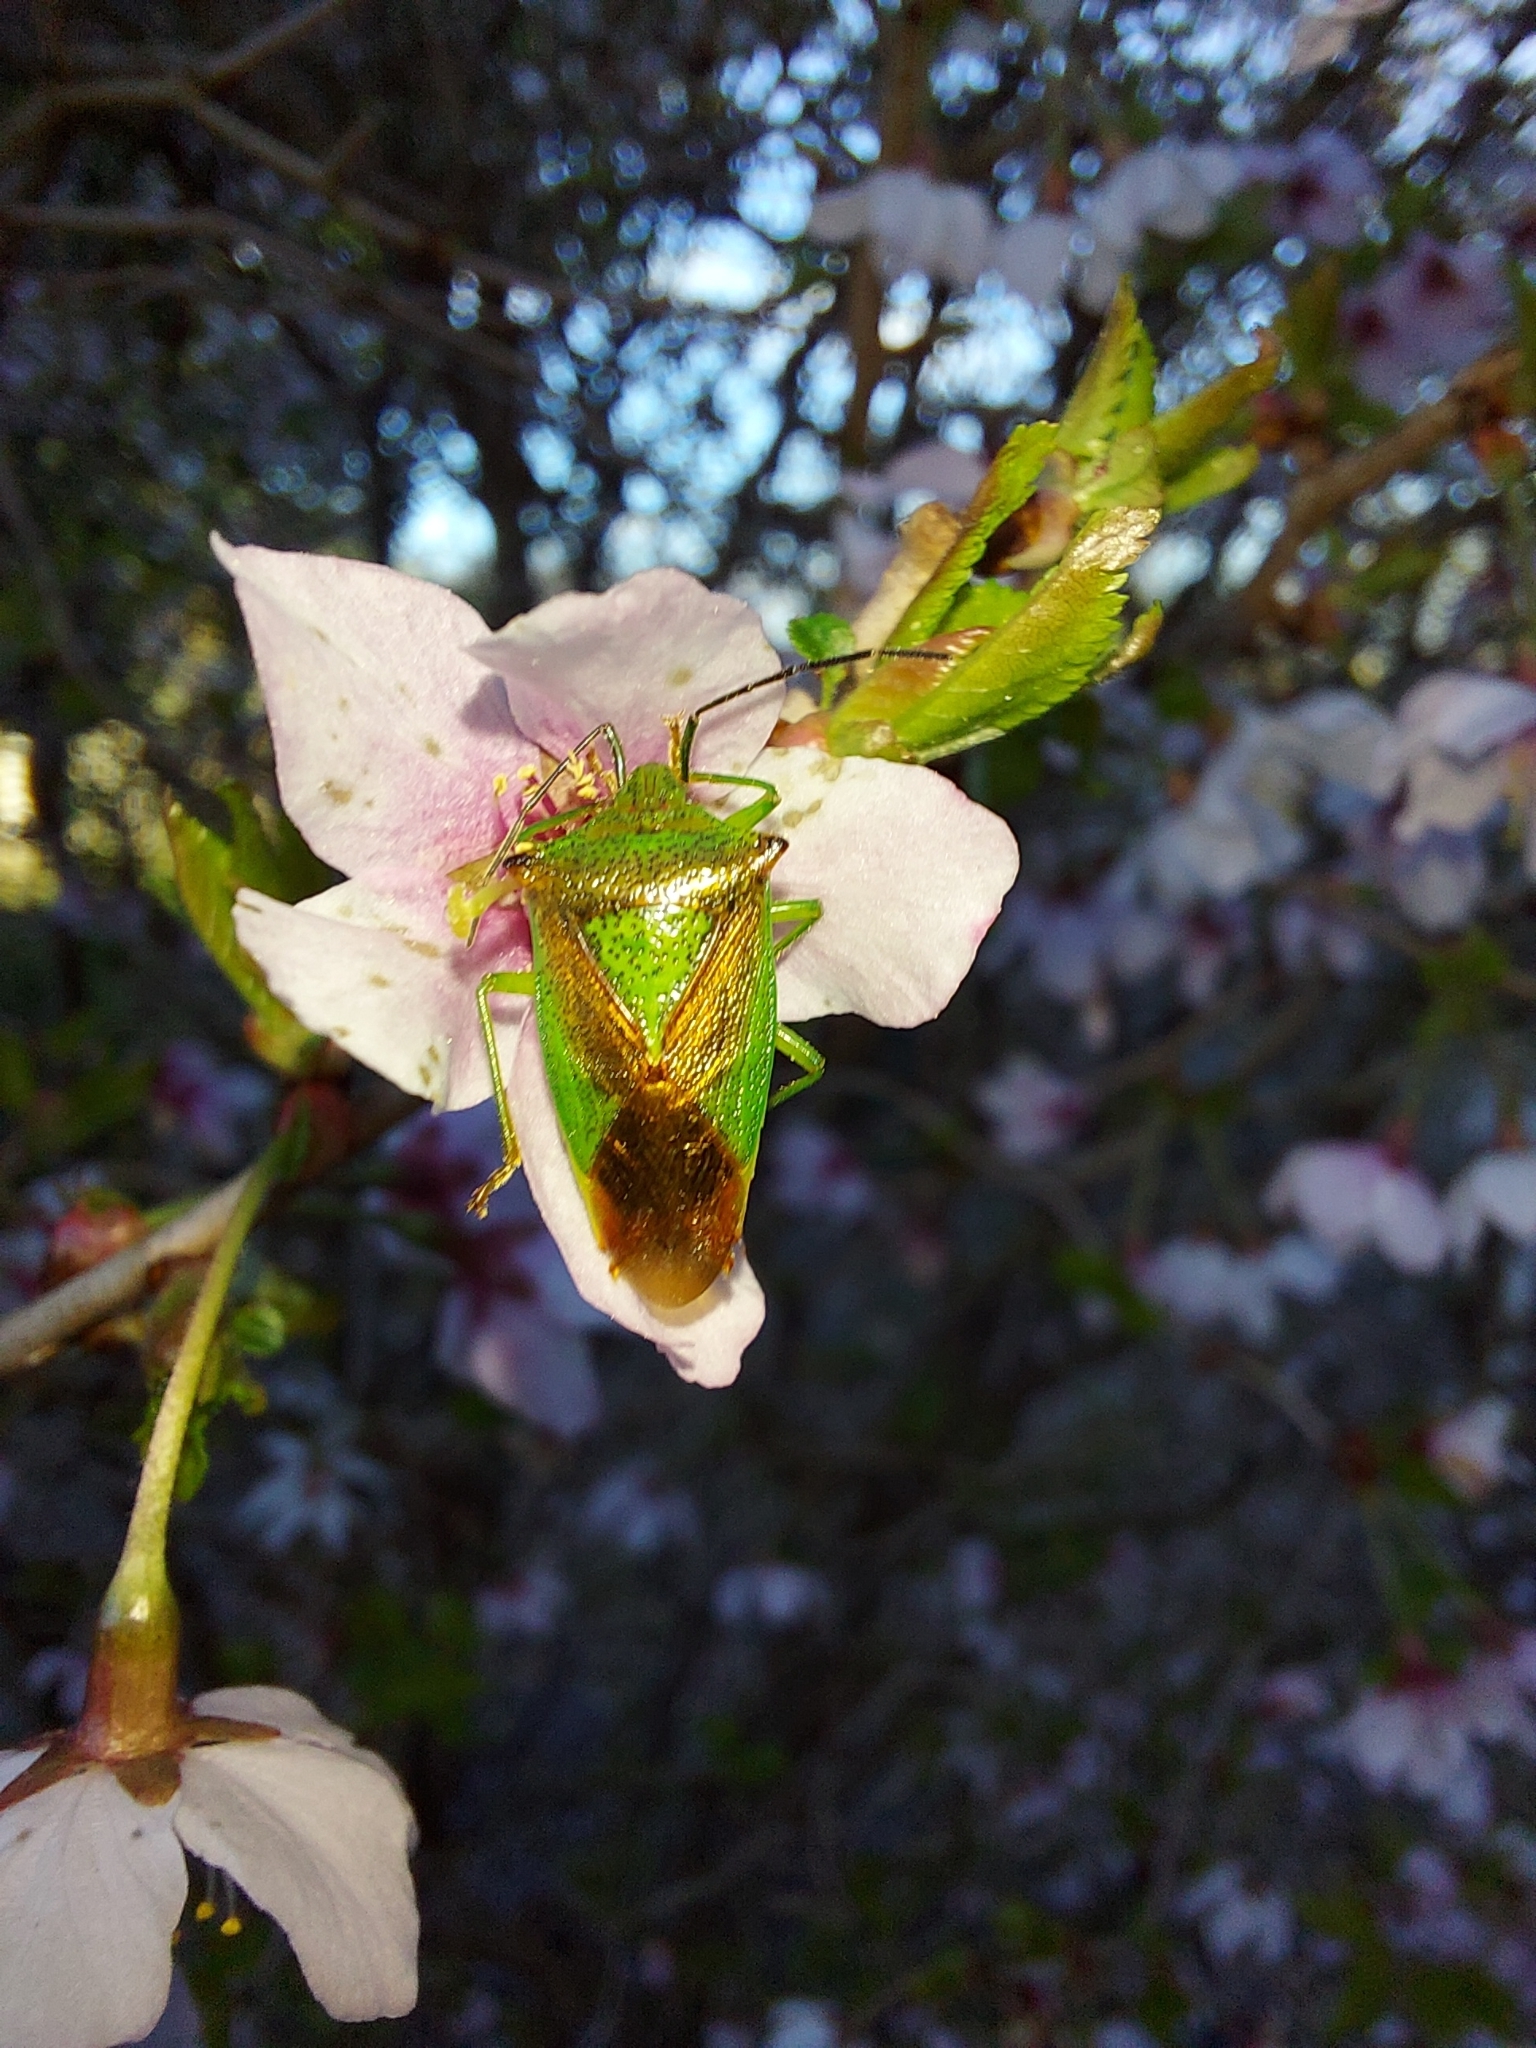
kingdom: Animalia
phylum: Arthropoda
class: Insecta
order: Hemiptera
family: Acanthosomatidae
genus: Acanthosoma
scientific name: Acanthosoma haemorrhoidale
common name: Hawthorn shieldbug
